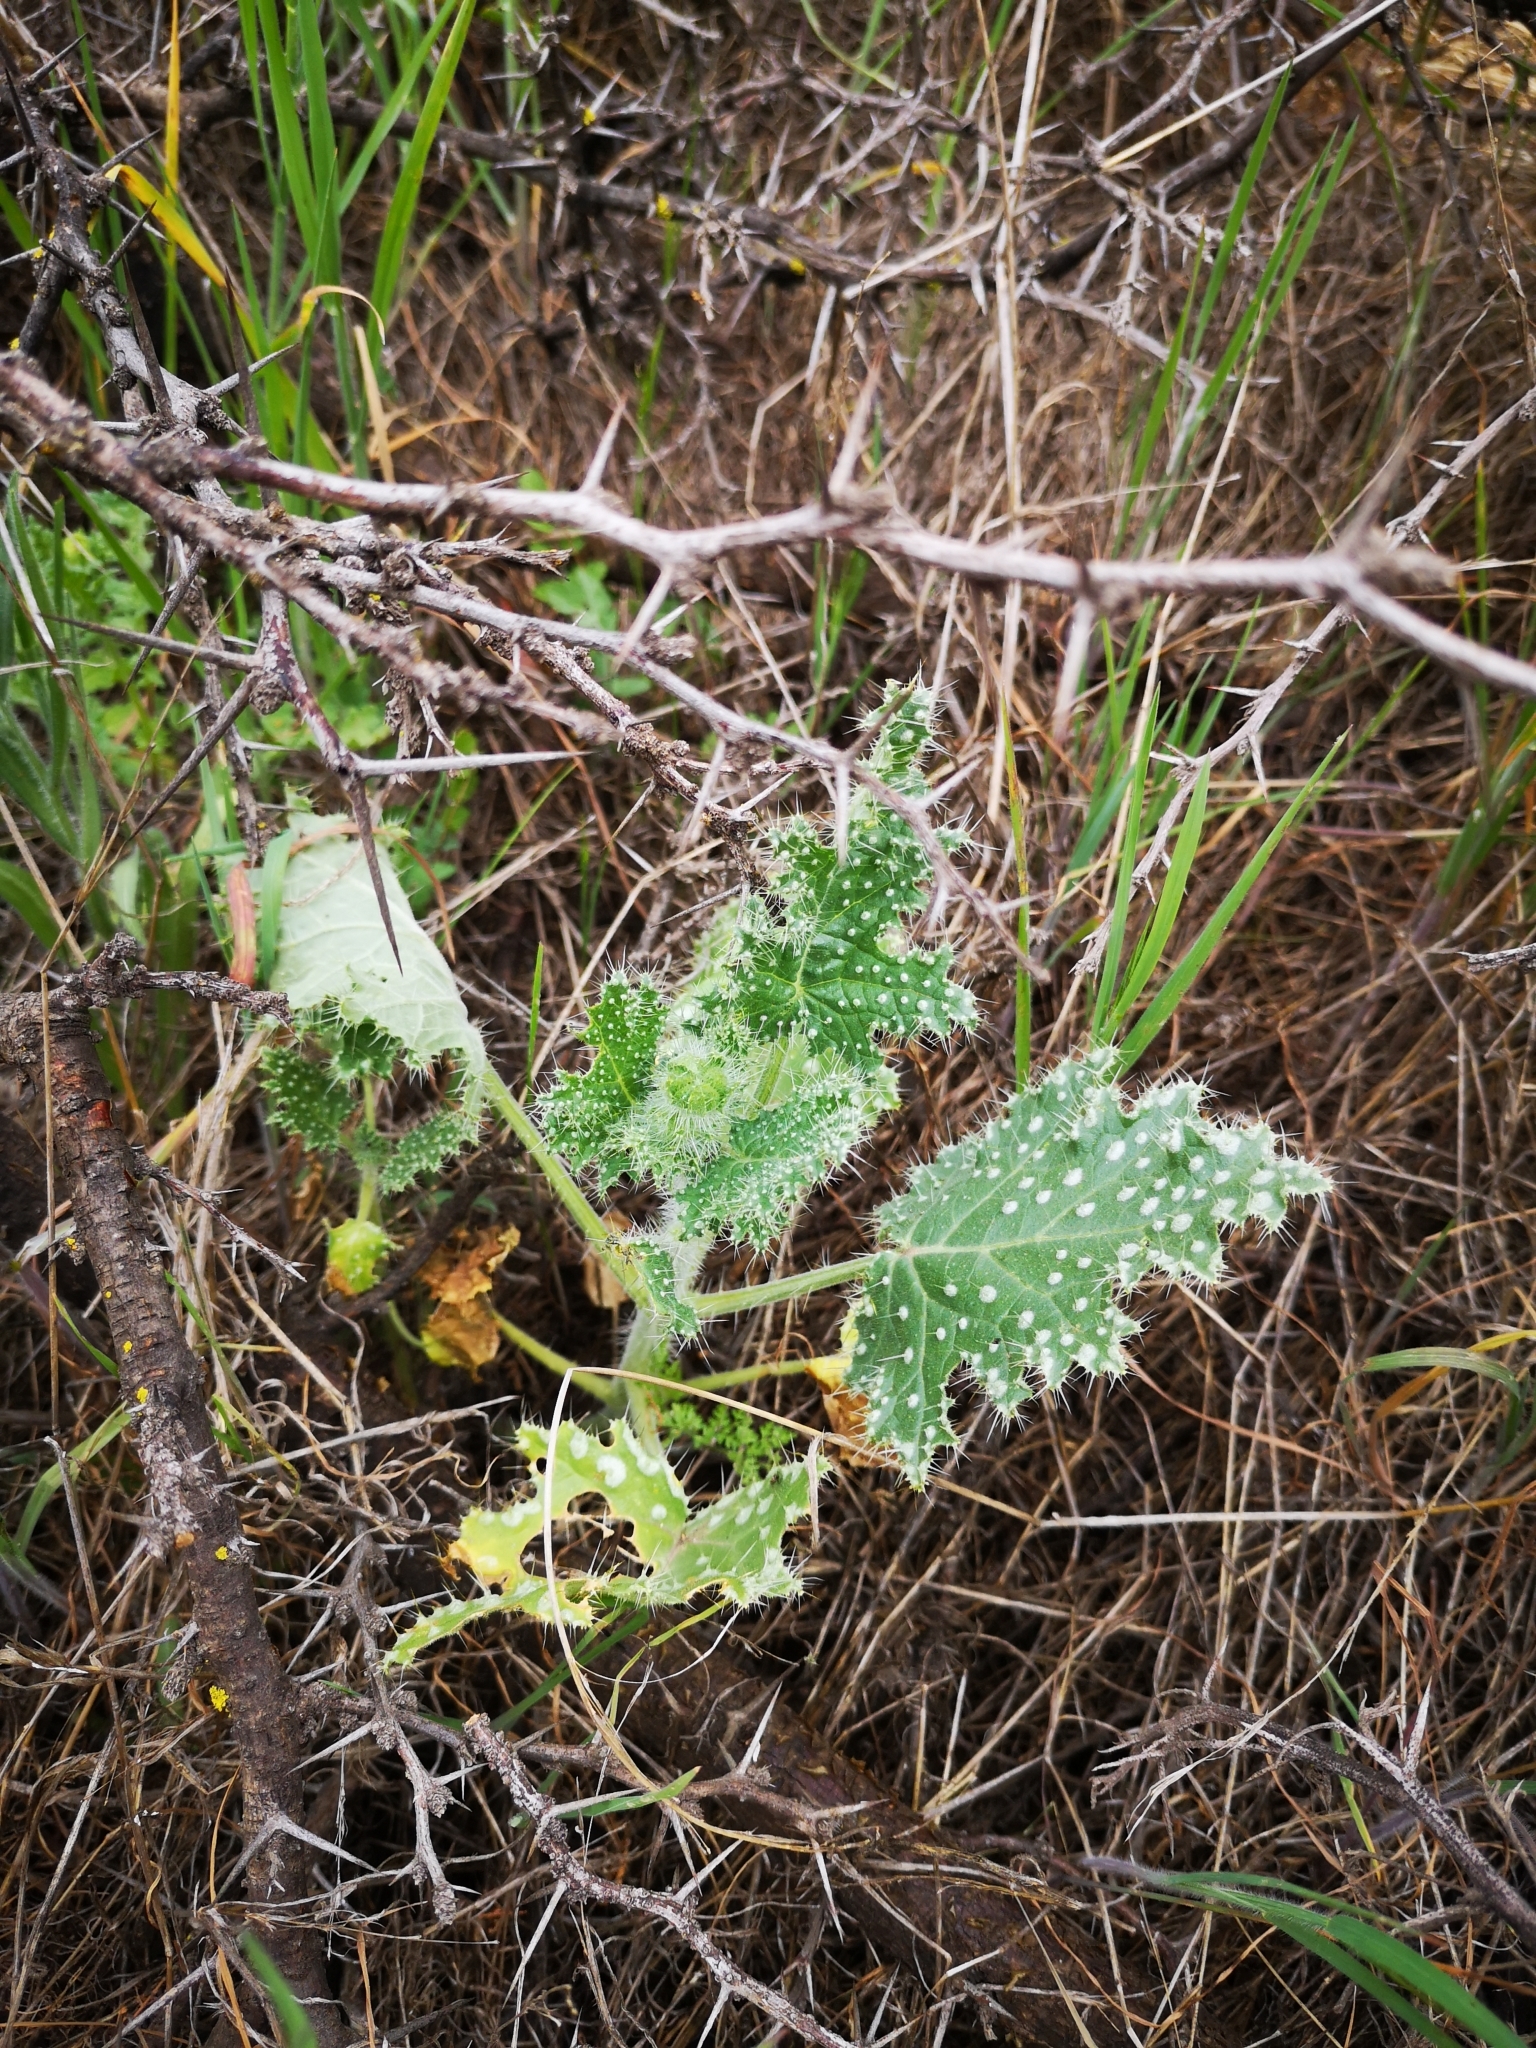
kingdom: Plantae
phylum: Tracheophyta
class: Magnoliopsida
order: Cornales
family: Loasaceae
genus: Loasa
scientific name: Loasa placei
